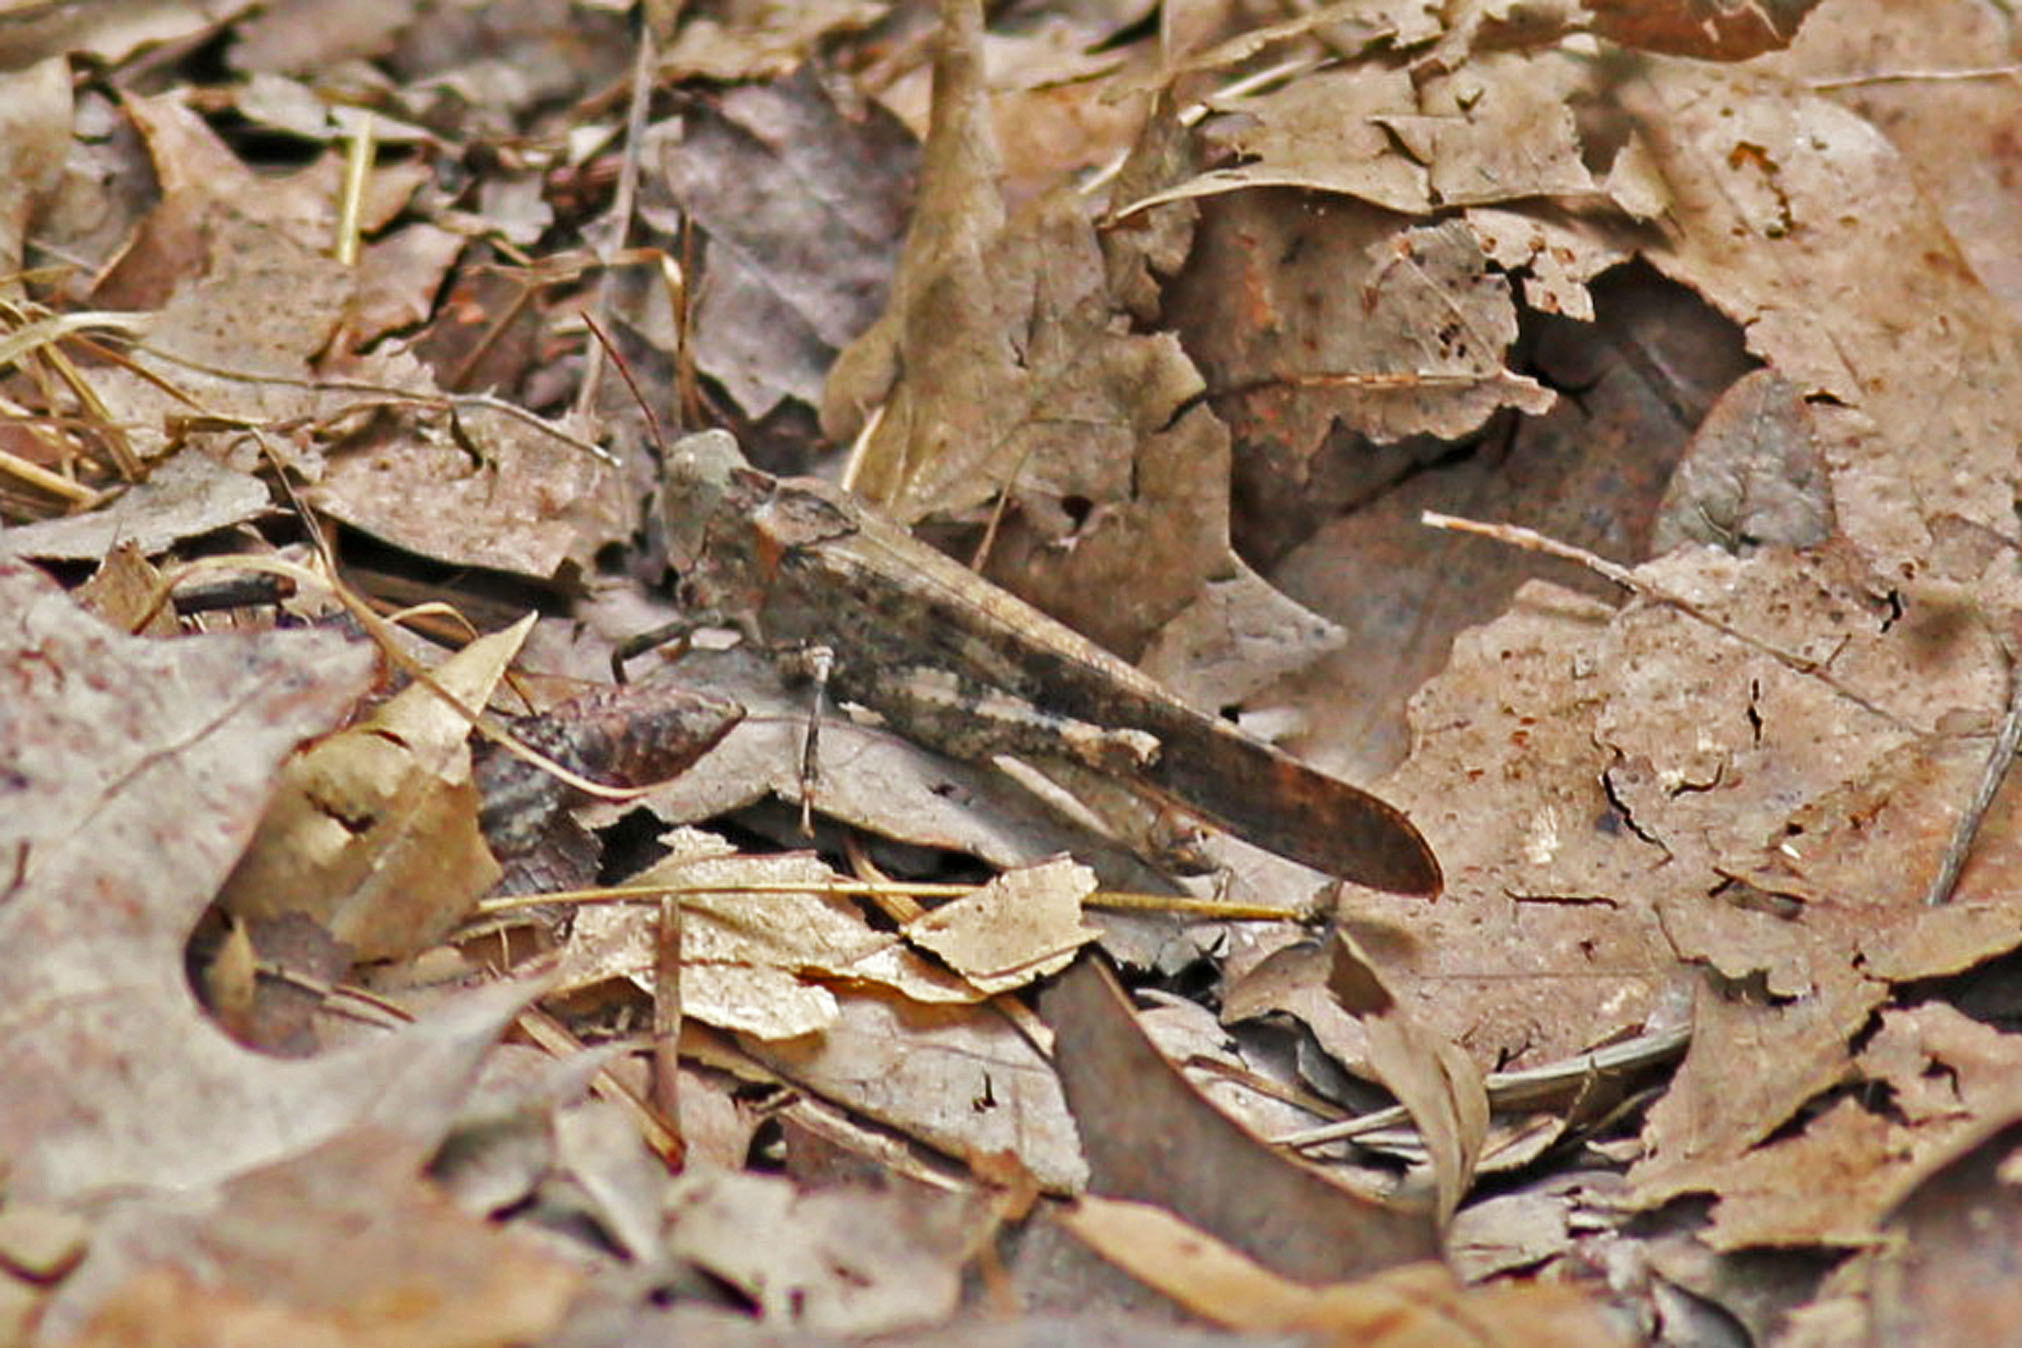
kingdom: Animalia
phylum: Arthropoda
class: Insecta
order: Orthoptera
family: Acrididae
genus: Dissosteira
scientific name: Dissosteira carolina
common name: Carolina grasshopper
